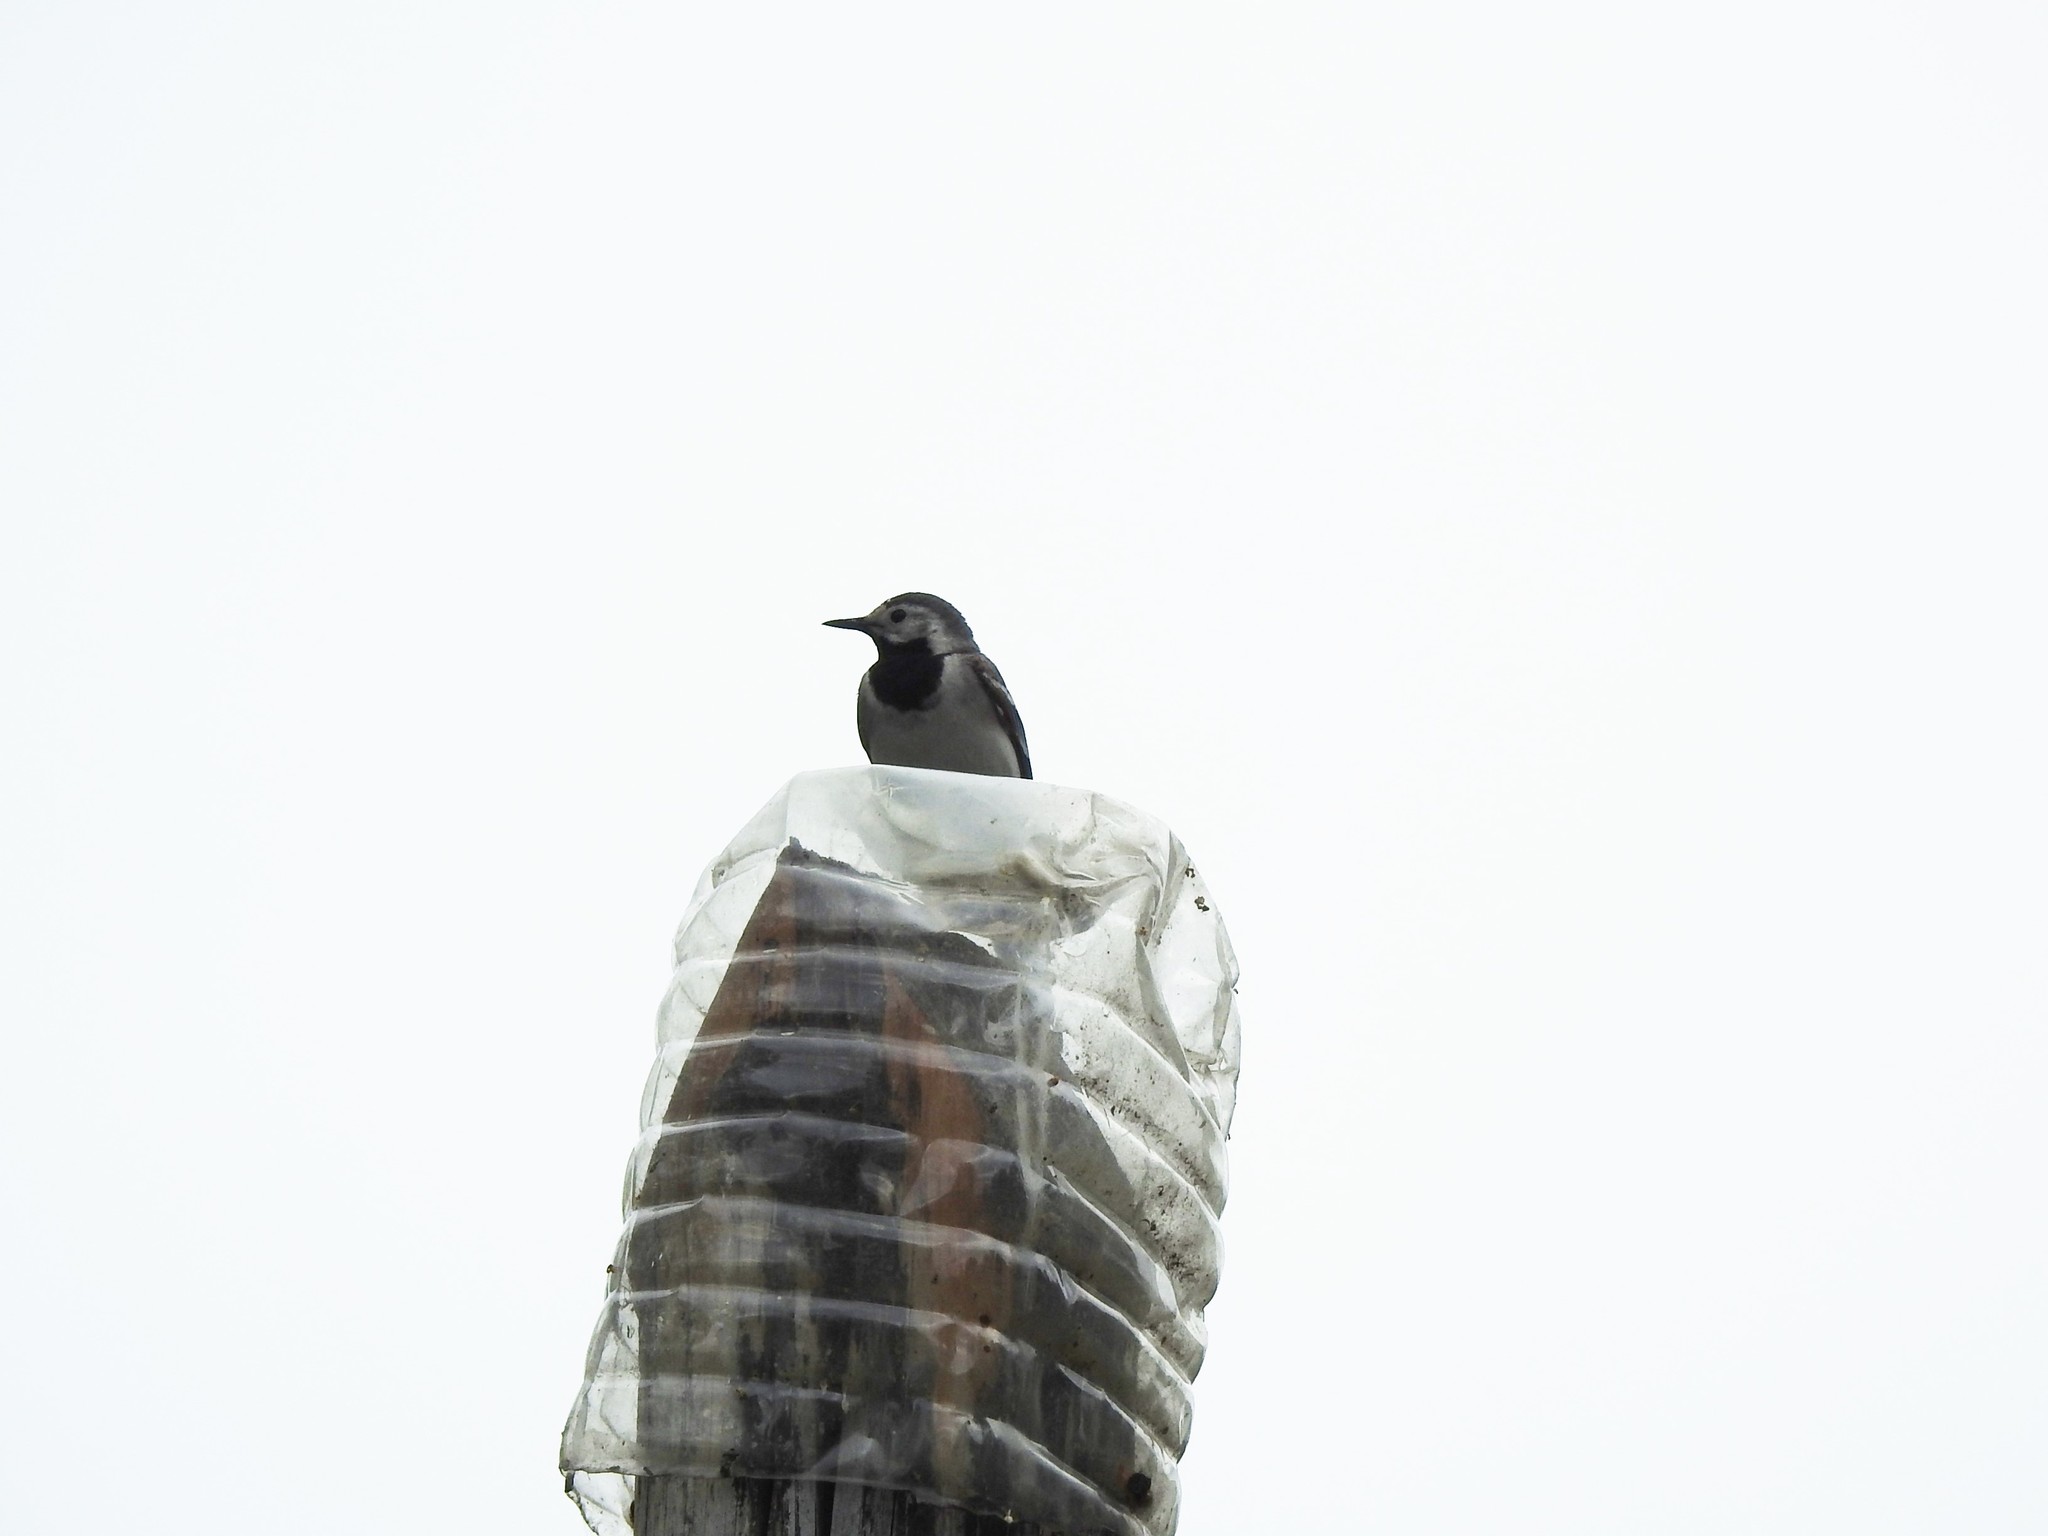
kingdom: Animalia
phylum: Chordata
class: Aves
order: Passeriformes
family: Motacillidae
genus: Motacilla
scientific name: Motacilla alba
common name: White wagtail
